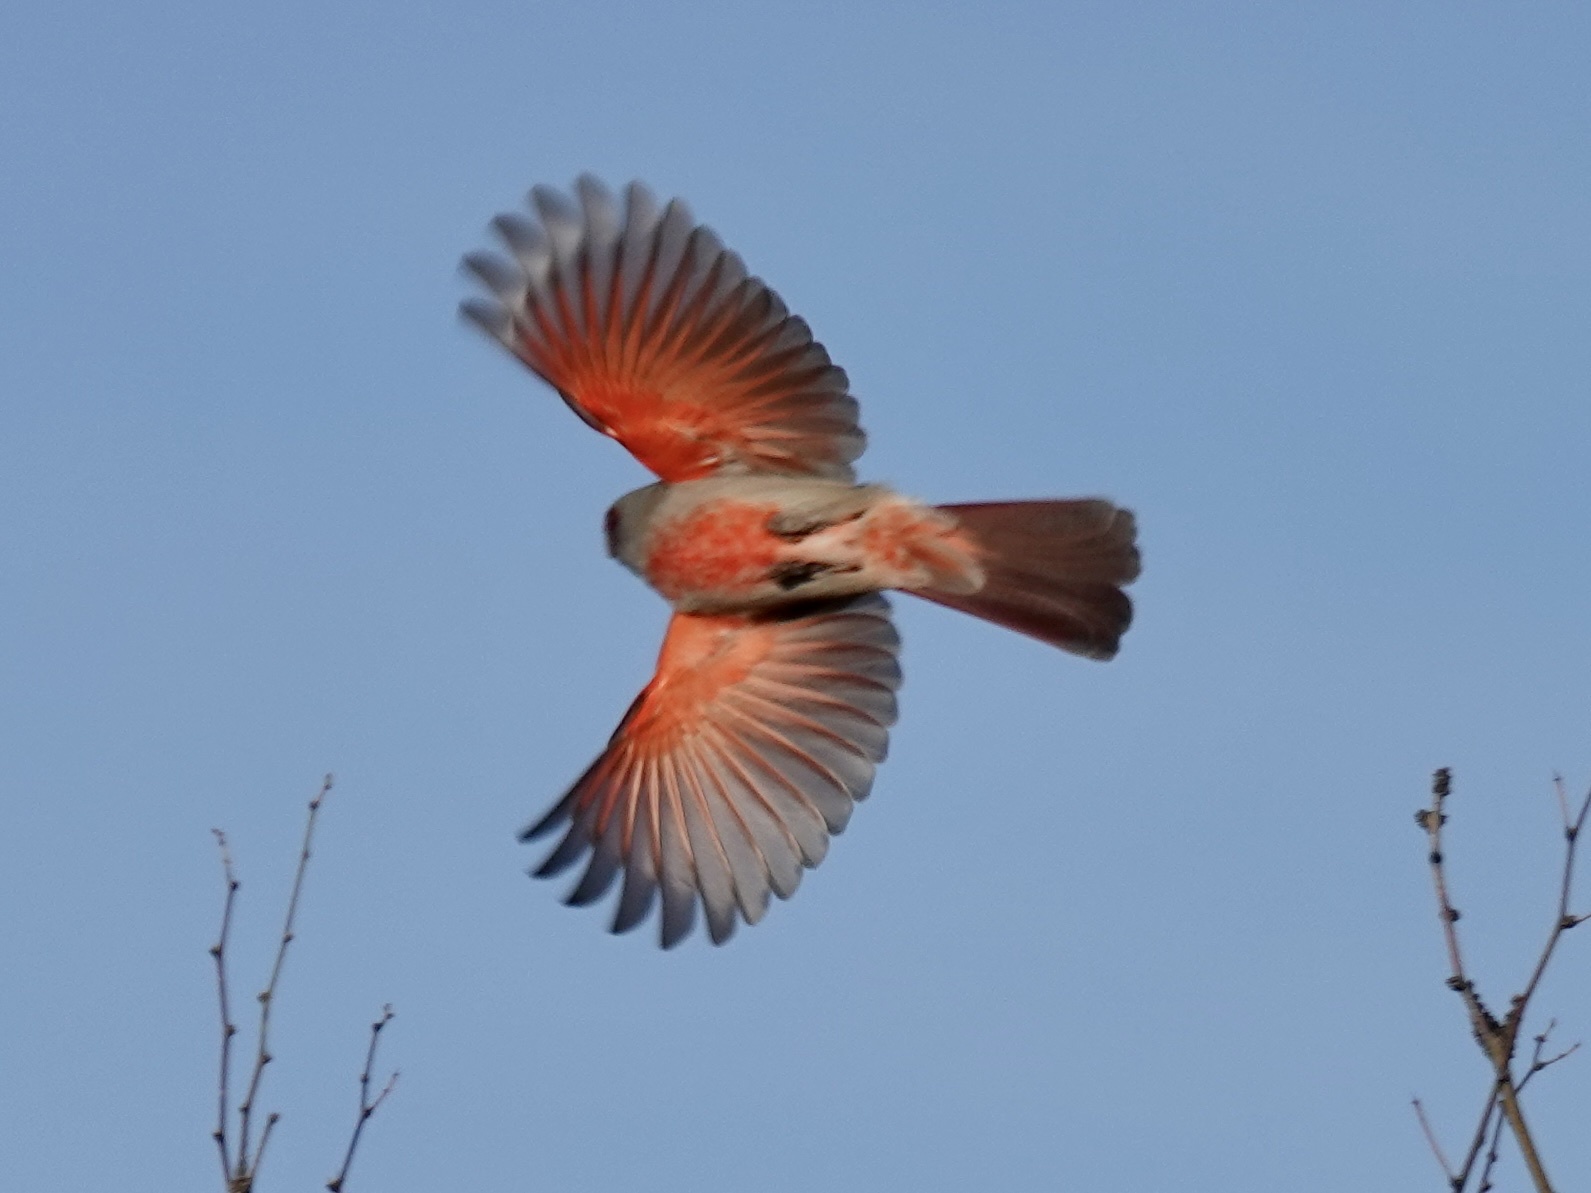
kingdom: Animalia
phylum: Chordata
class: Aves
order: Passeriformes
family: Cardinalidae
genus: Cardinalis
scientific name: Cardinalis sinuatus
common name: Pyrrhuloxia
